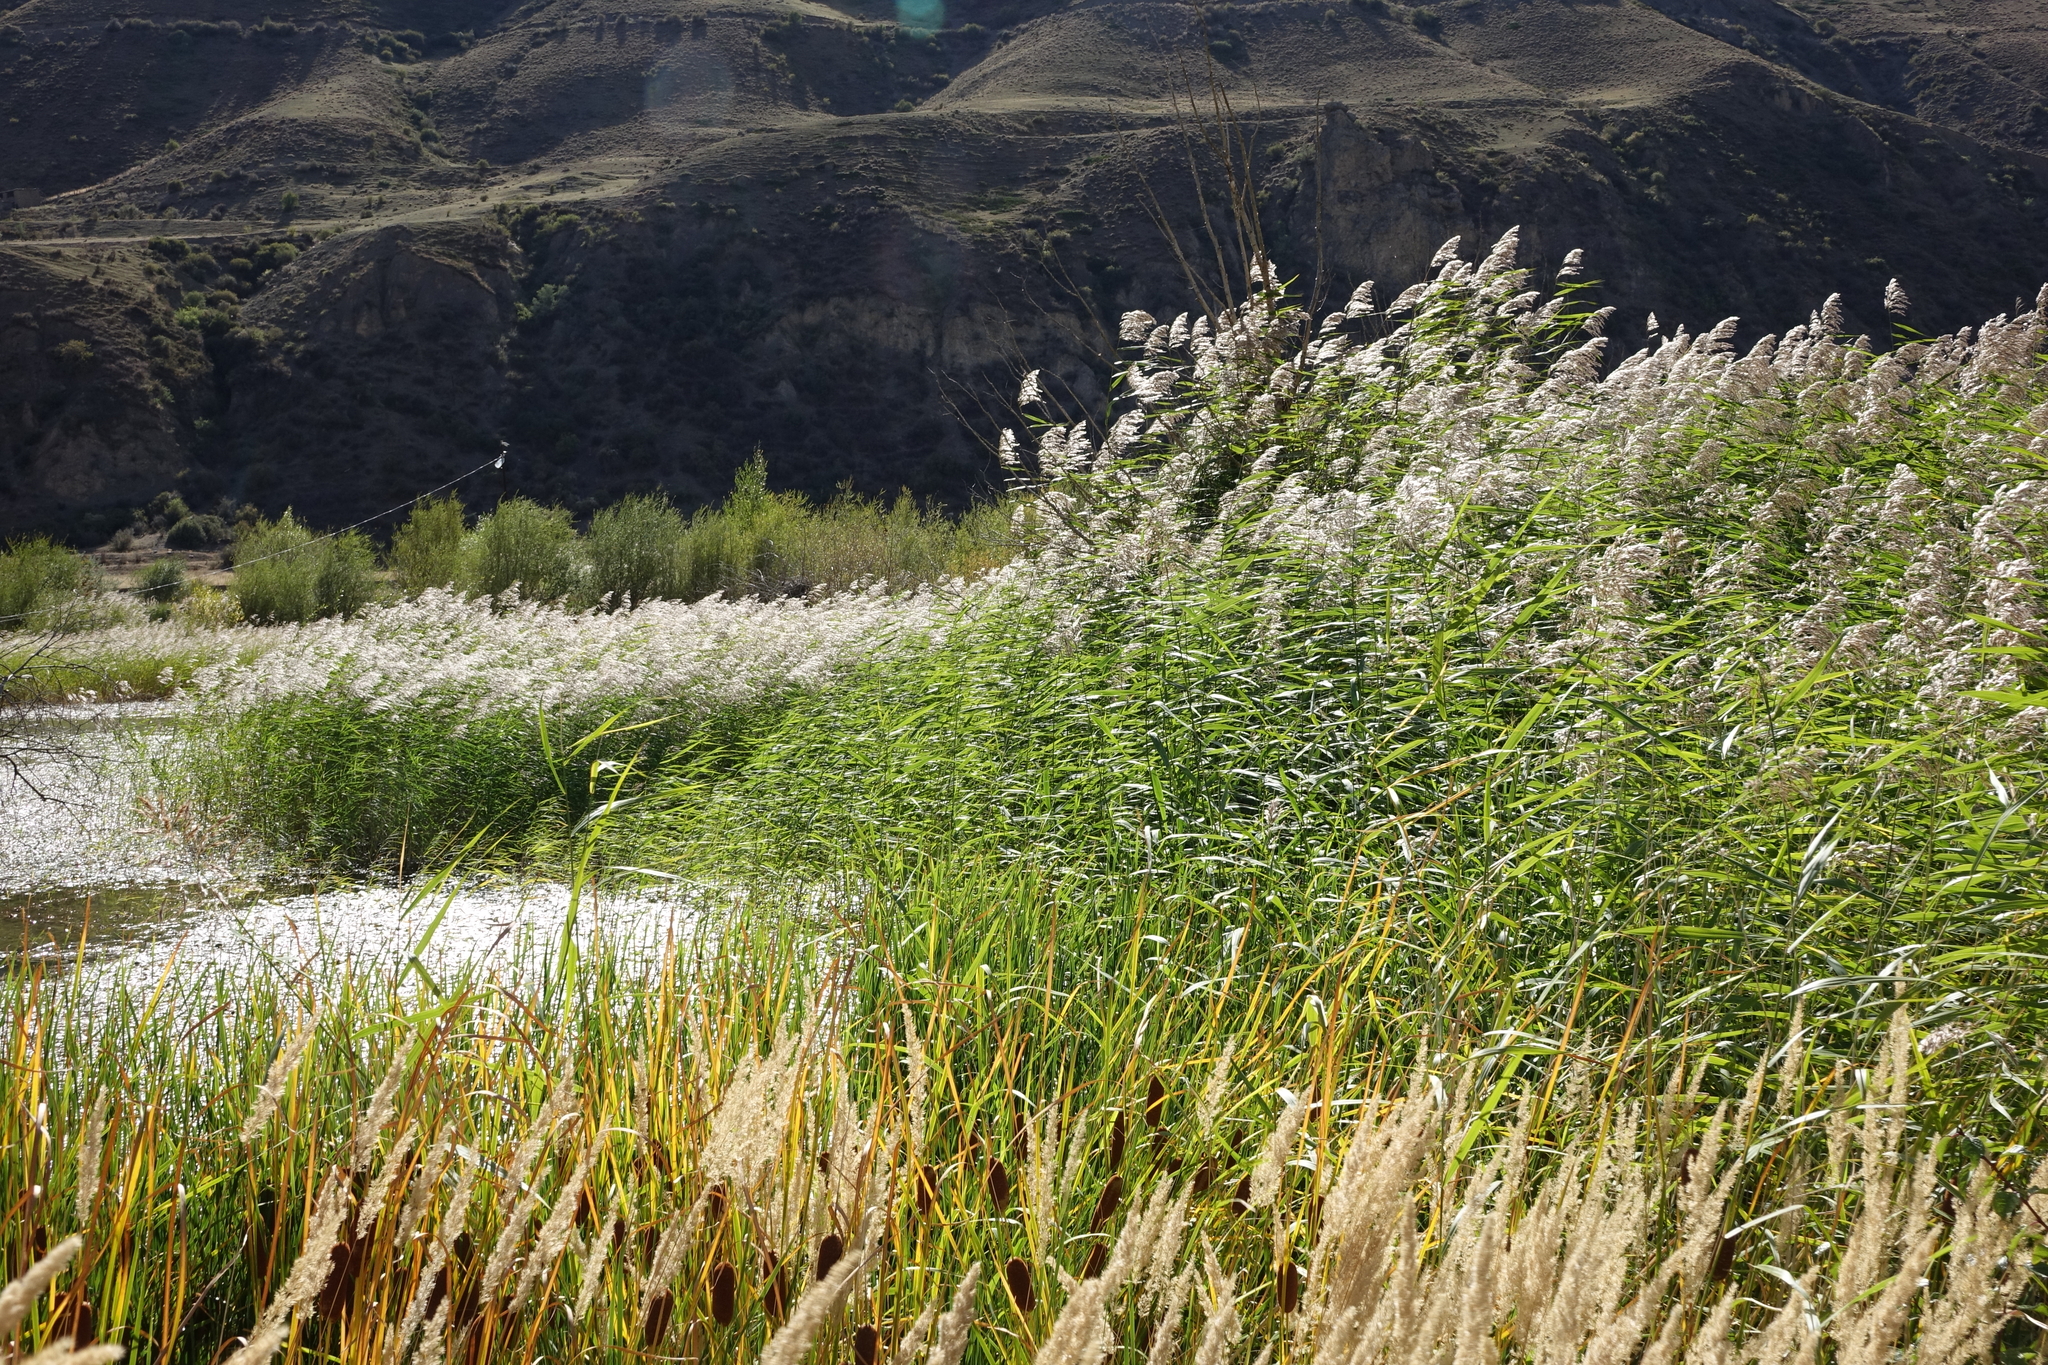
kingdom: Plantae
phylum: Tracheophyta
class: Liliopsida
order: Poales
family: Poaceae
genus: Phragmites
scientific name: Phragmites australis
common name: Common reed
